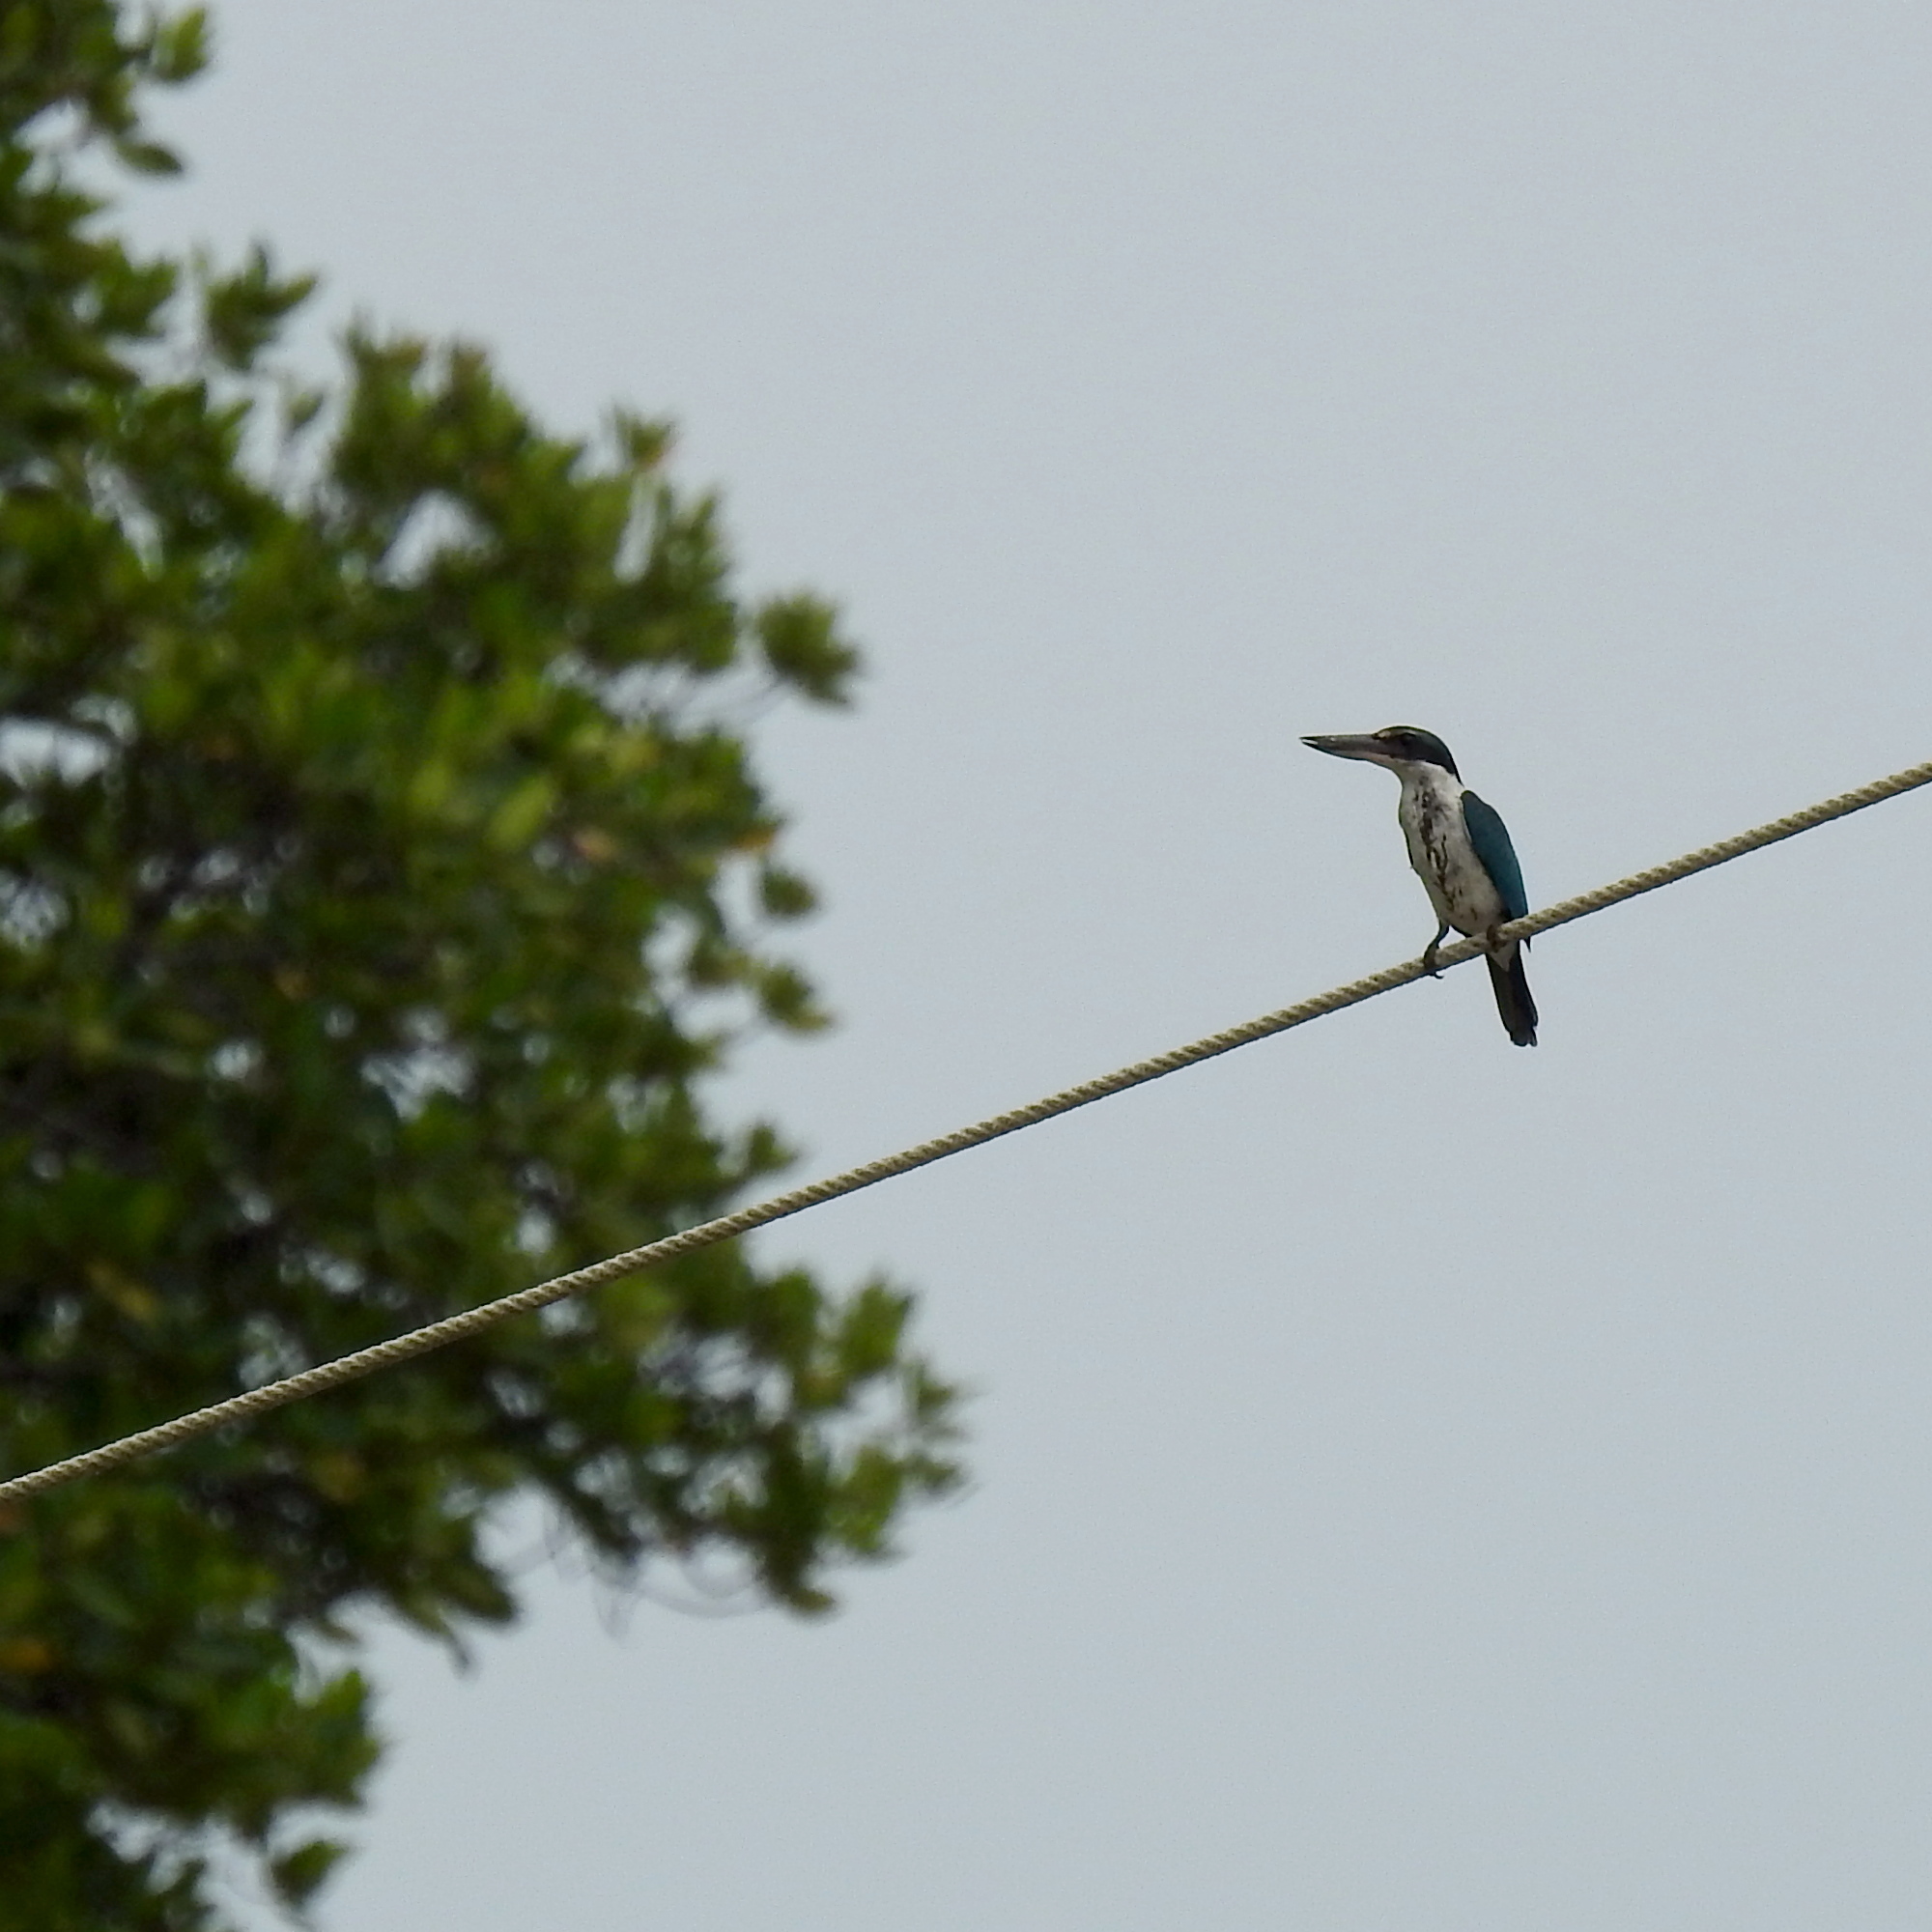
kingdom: Animalia
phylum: Chordata
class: Aves
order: Coraciiformes
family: Alcedinidae
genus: Todiramphus
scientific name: Todiramphus chloris
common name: Collared kingfisher
